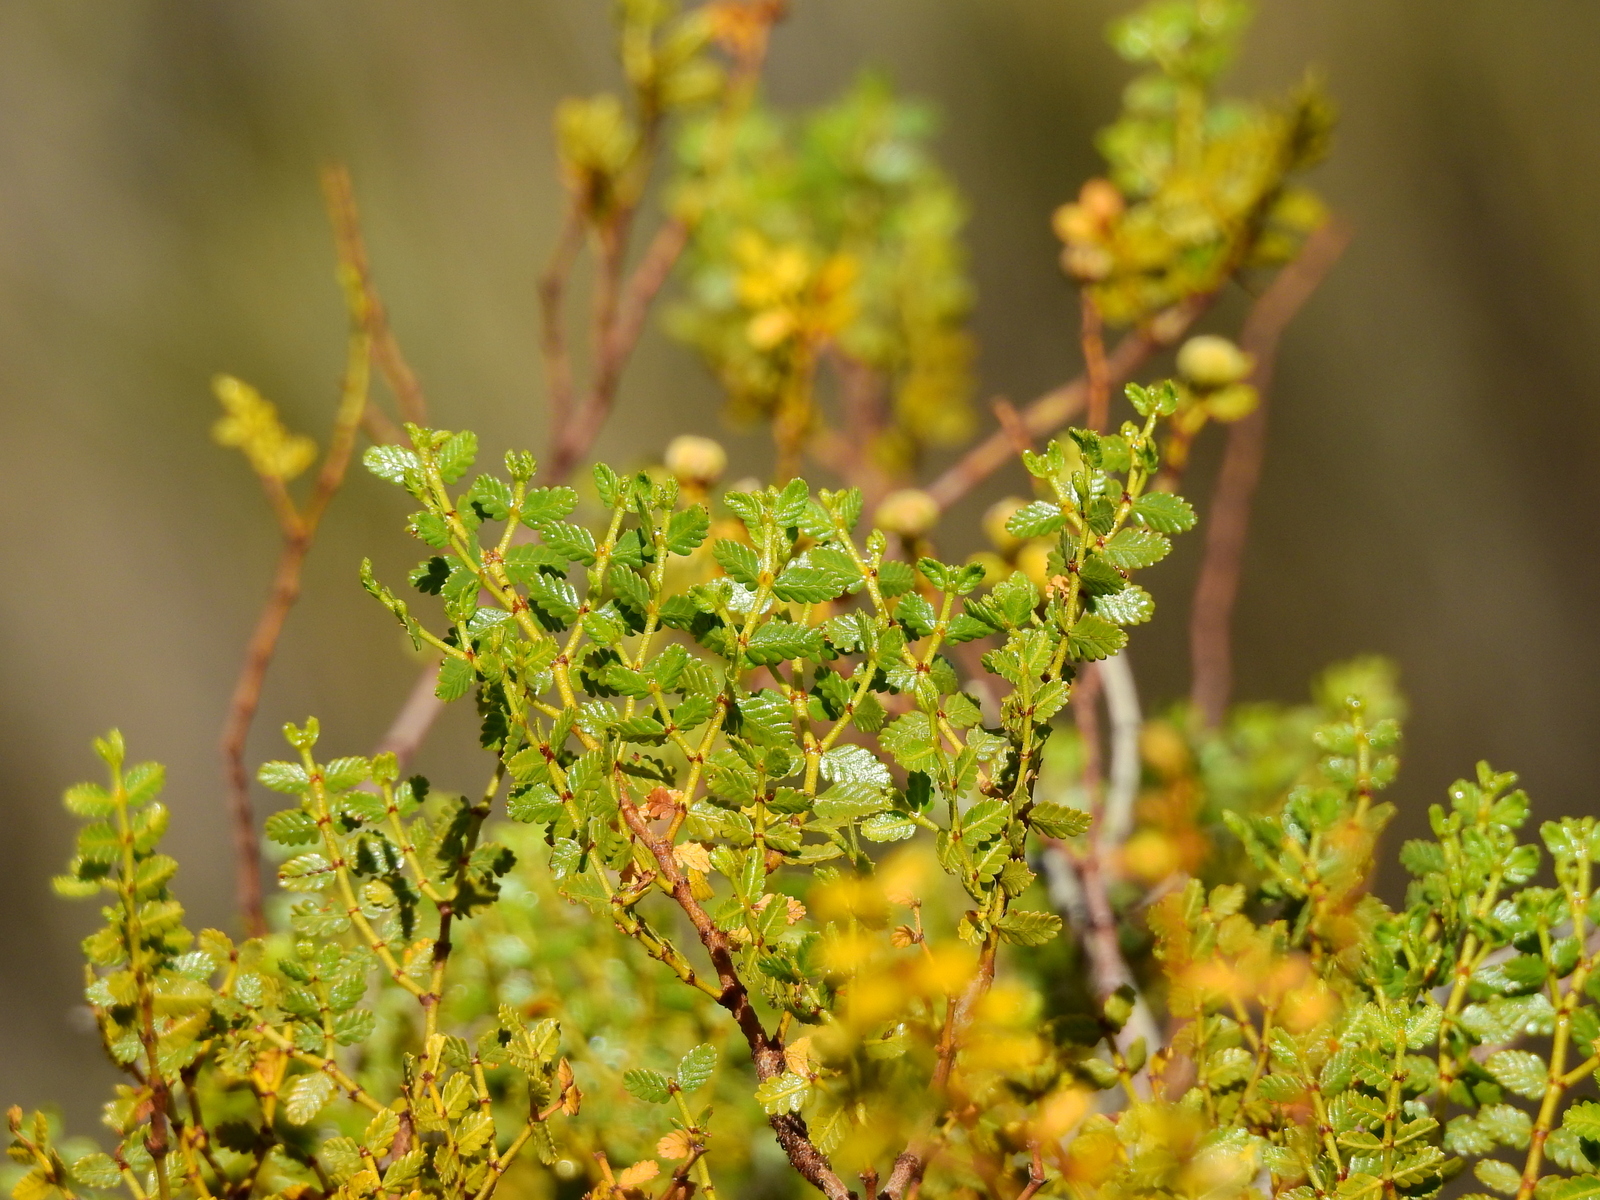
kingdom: Plantae
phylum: Tracheophyta
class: Magnoliopsida
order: Zygophyllales
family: Zygophyllaceae
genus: Larrea
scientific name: Larrea nitida
